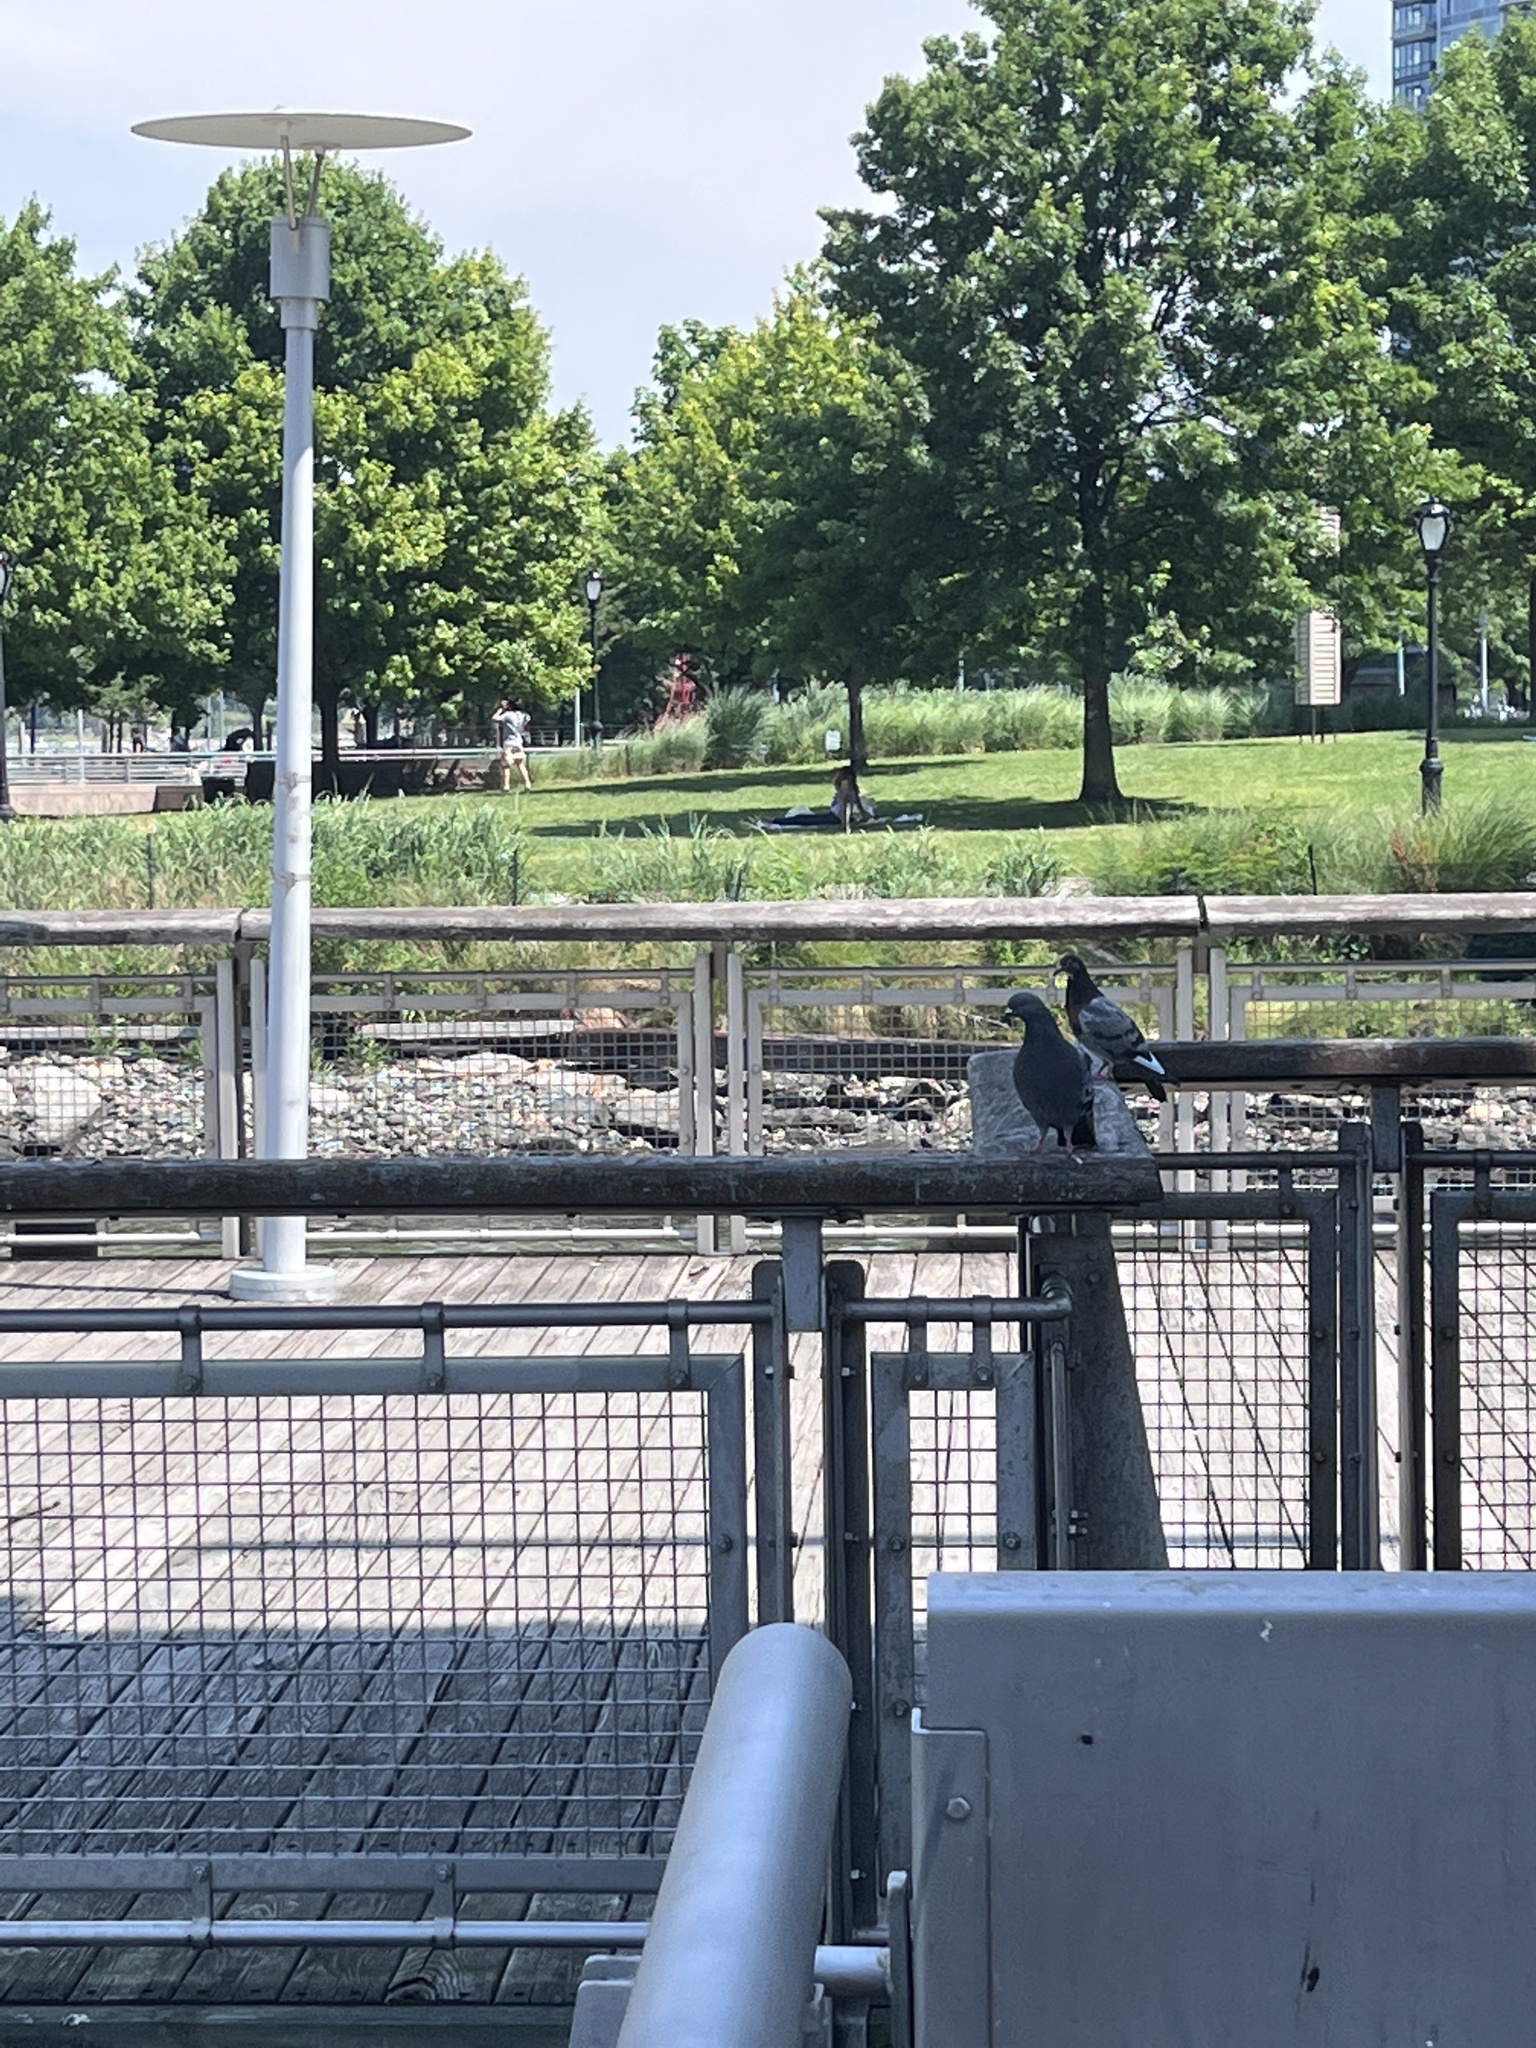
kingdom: Animalia
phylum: Chordata
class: Aves
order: Columbiformes
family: Columbidae
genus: Columba
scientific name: Columba livia
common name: Rock pigeon
